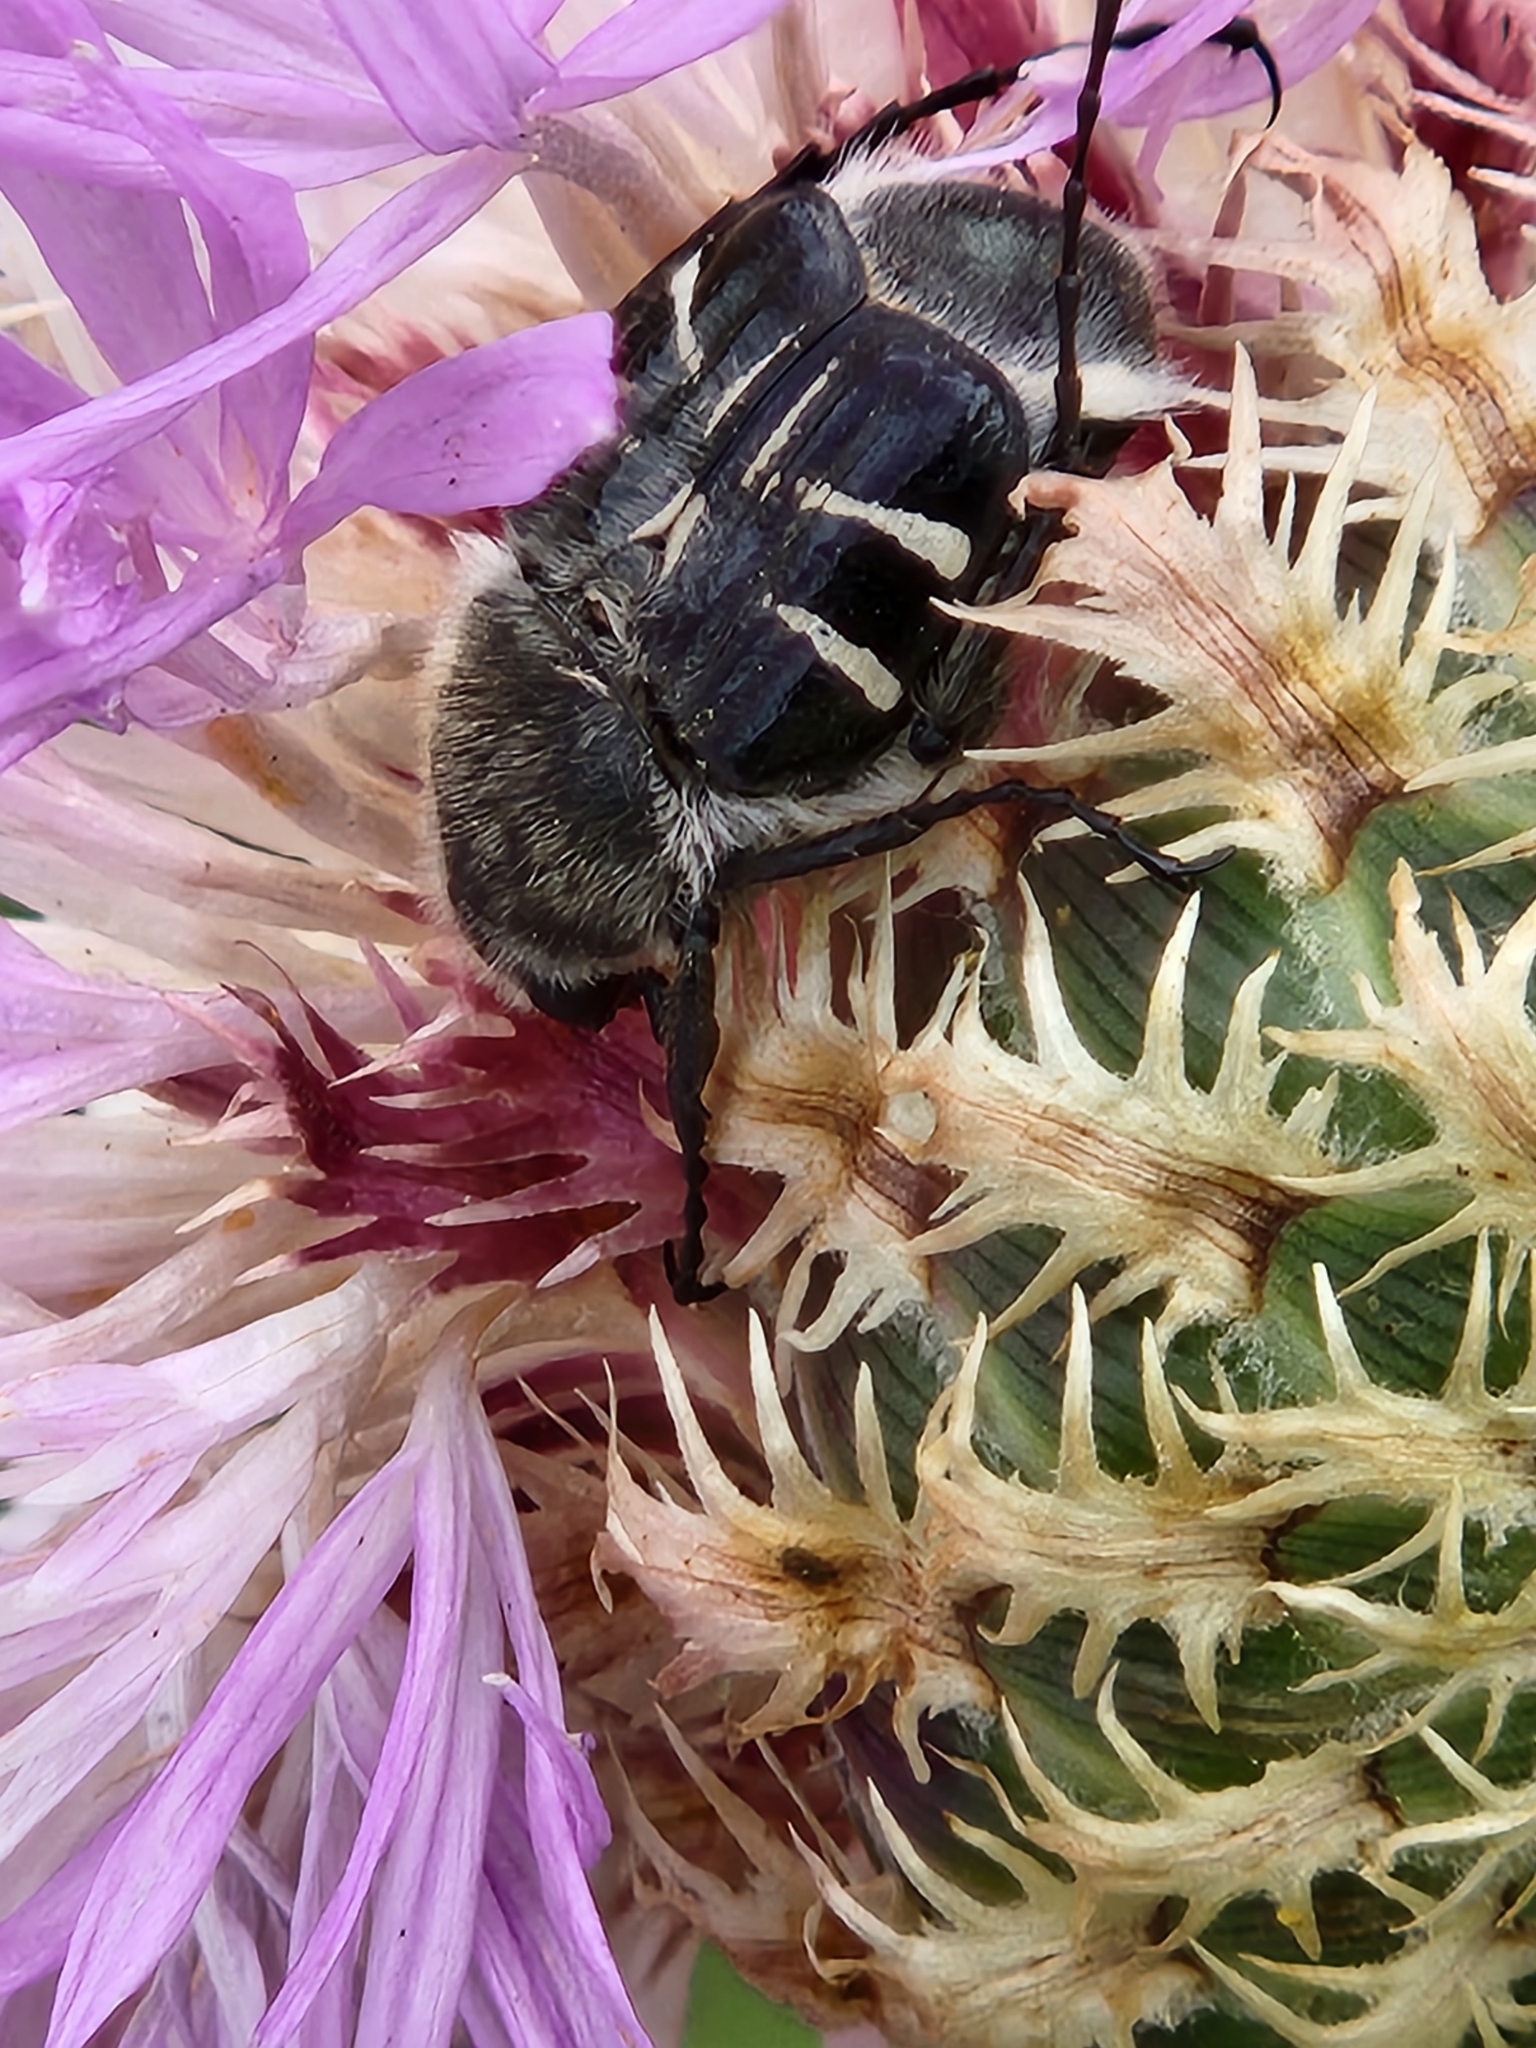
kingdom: Animalia
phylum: Arthropoda
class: Insecta
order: Coleoptera
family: Scarabaeidae
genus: Trichiotinus
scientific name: Trichiotinus texanus
